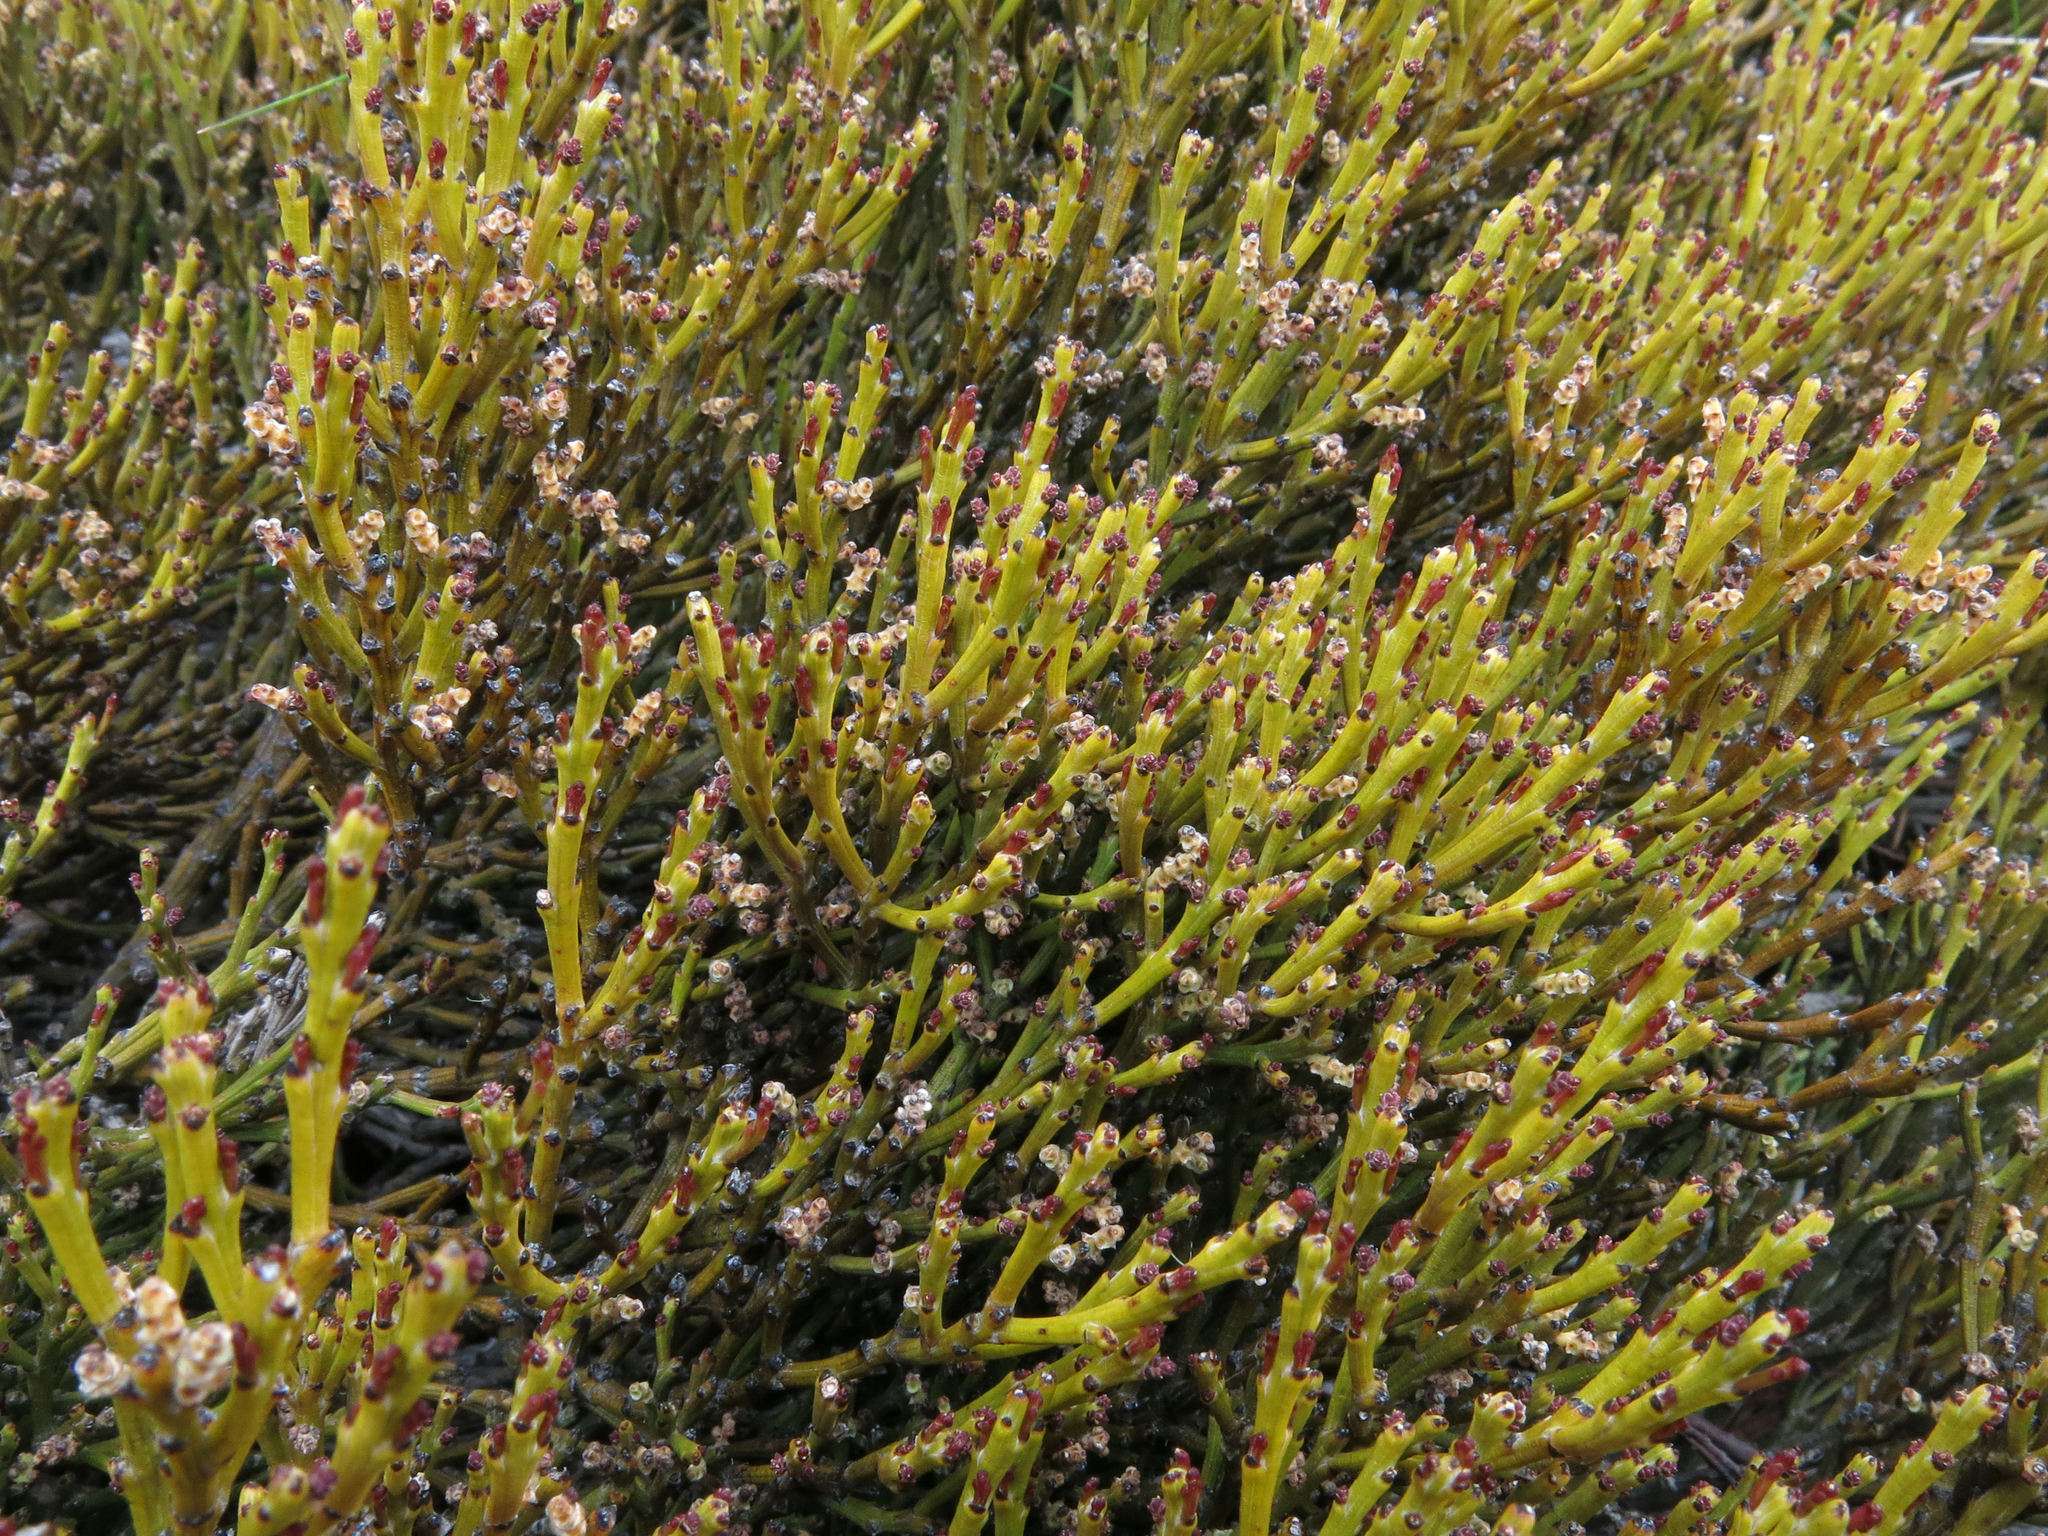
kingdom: Plantae
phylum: Tracheophyta
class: Magnoliopsida
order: Santalales
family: Santalaceae
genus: Exocarpos
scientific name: Exocarpos bidwillii
